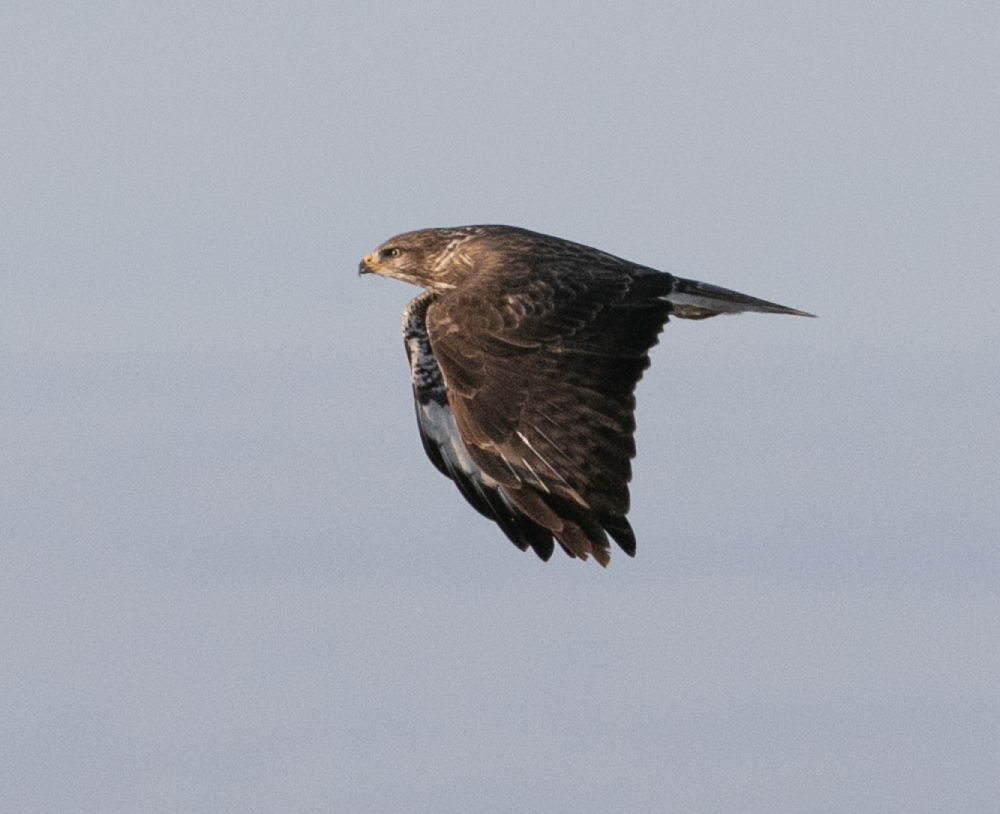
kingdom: Animalia
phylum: Chordata
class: Aves
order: Accipitriformes
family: Accipitridae
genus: Buteo
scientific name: Buteo buteo
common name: Common buzzard
